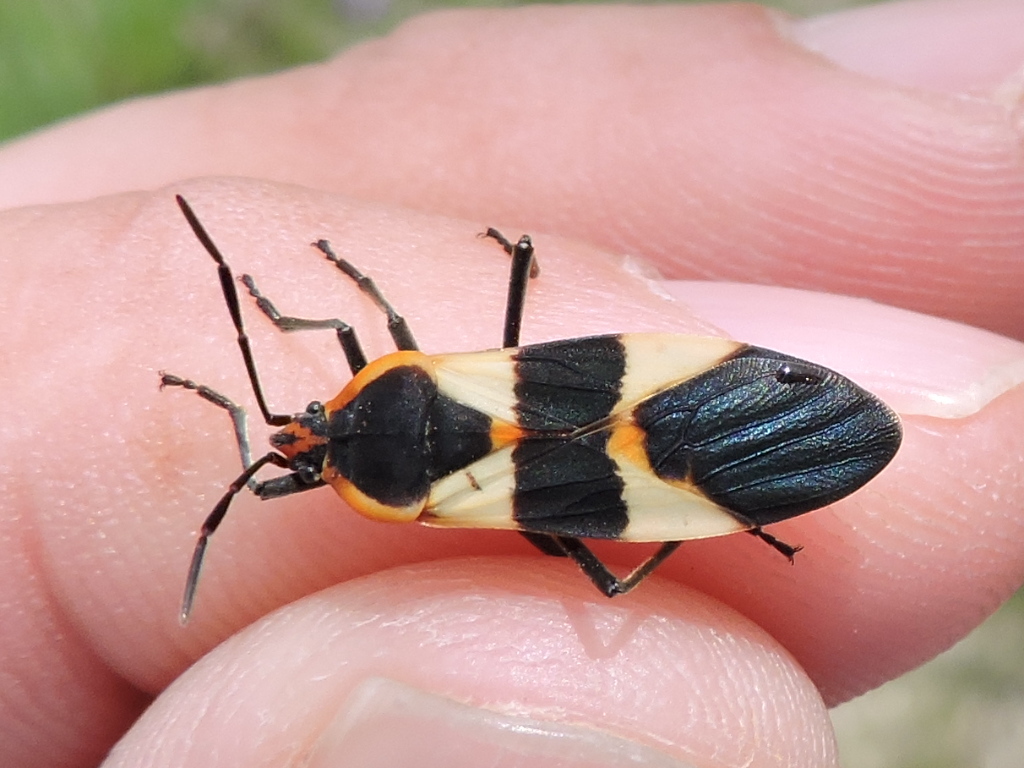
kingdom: Animalia
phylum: Arthropoda
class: Insecta
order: Hemiptera
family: Lygaeidae
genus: Oncopeltus
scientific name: Oncopeltus fasciatus
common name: Large milkweed bug
